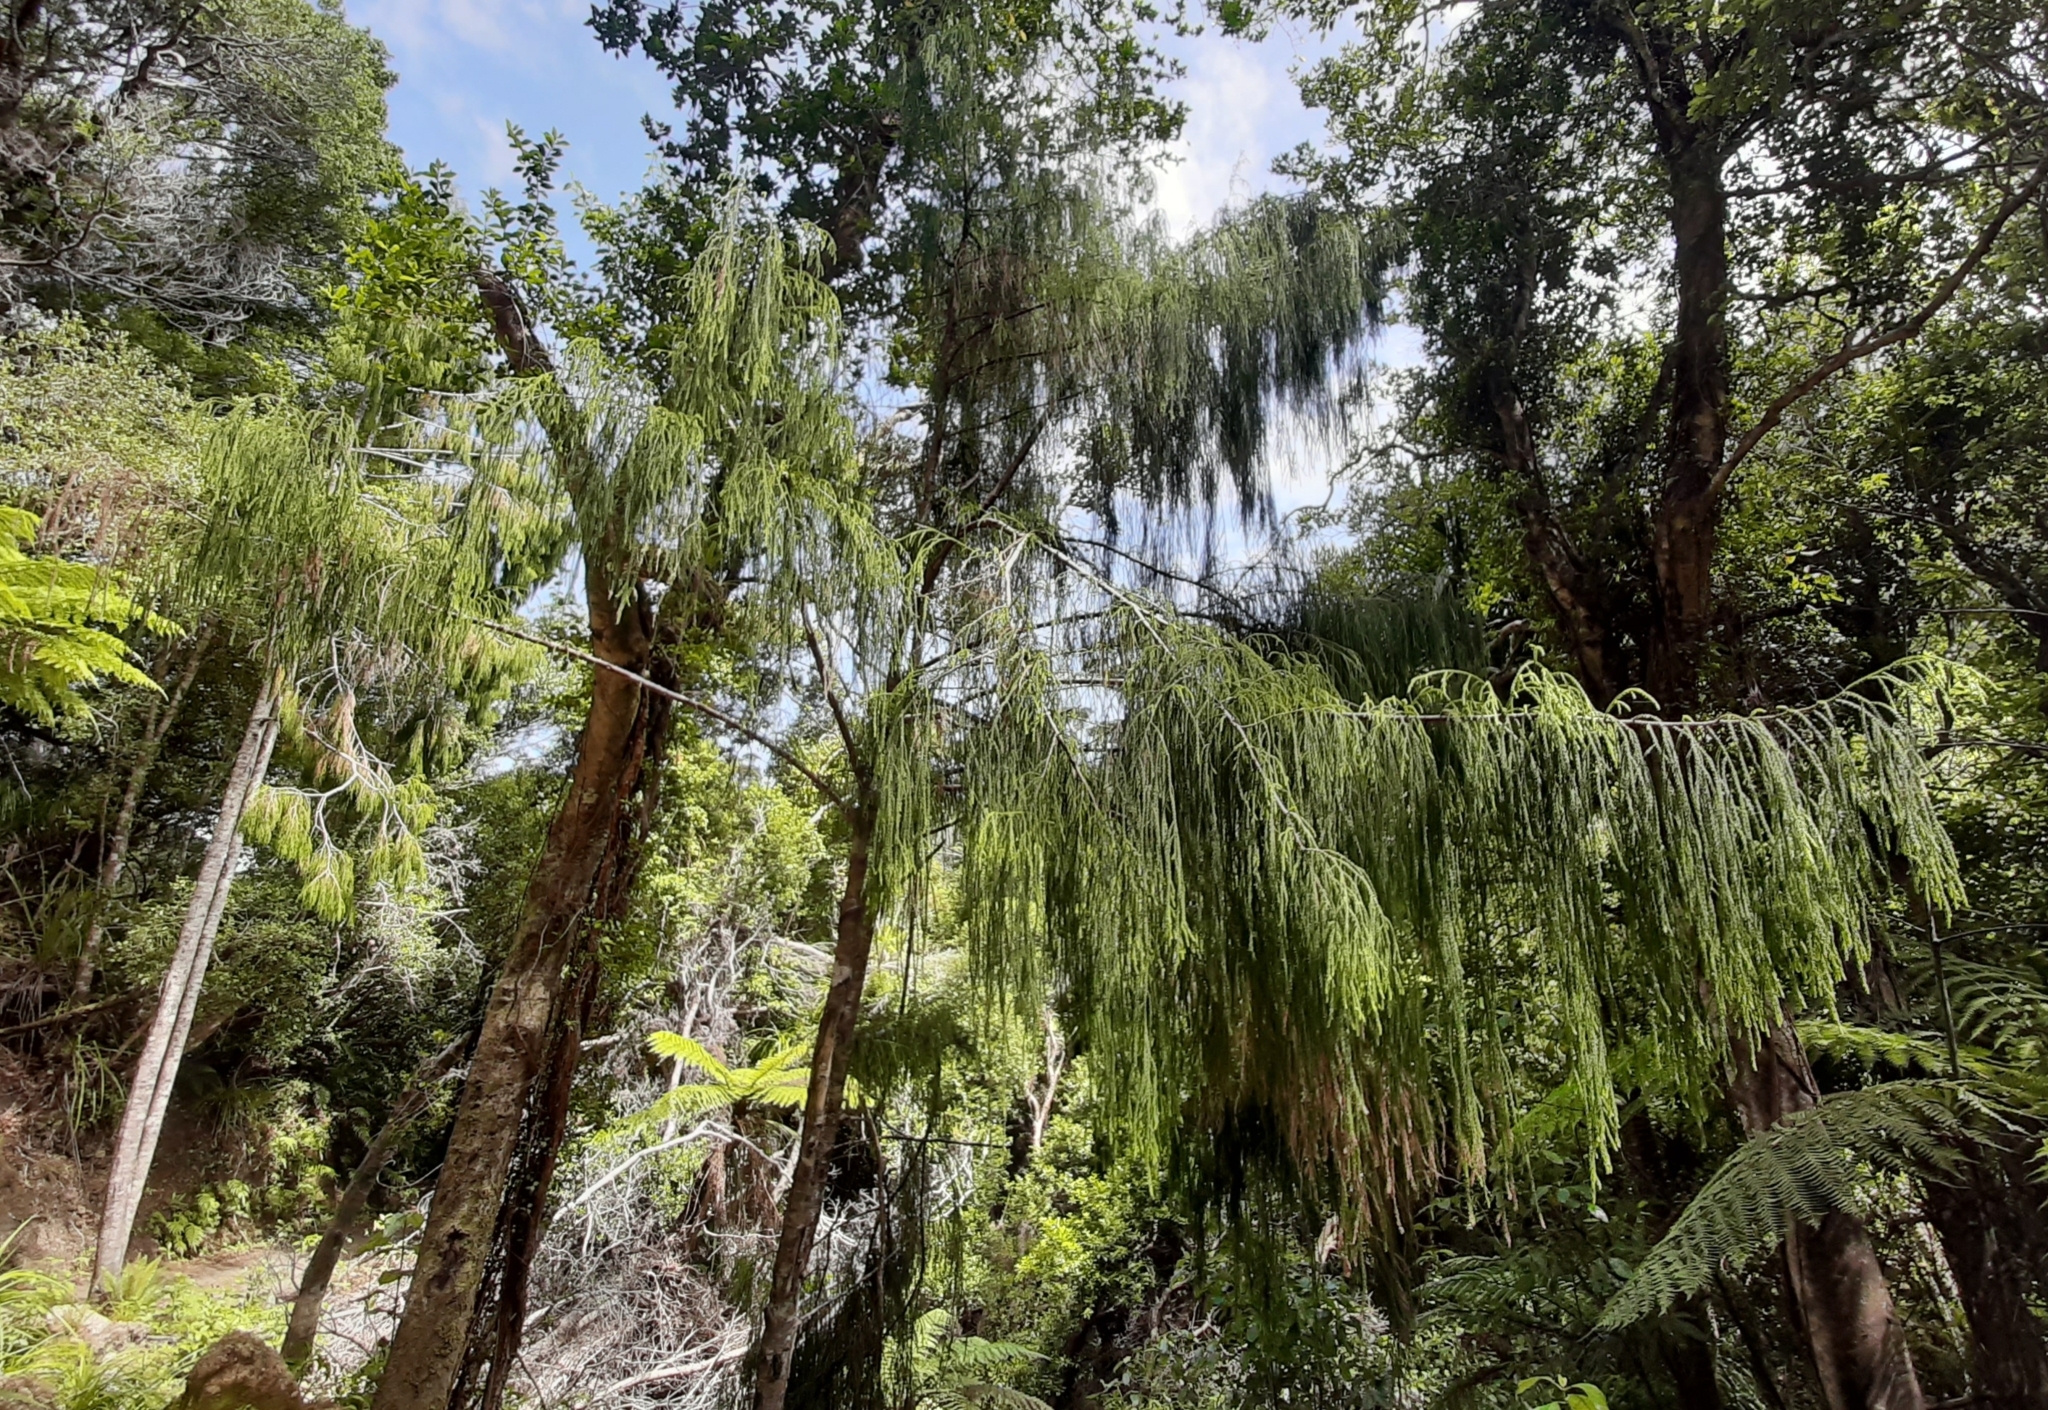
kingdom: Plantae
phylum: Tracheophyta
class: Pinopsida
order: Pinales
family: Podocarpaceae
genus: Dacrydium
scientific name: Dacrydium cupressinum
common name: Red pine
